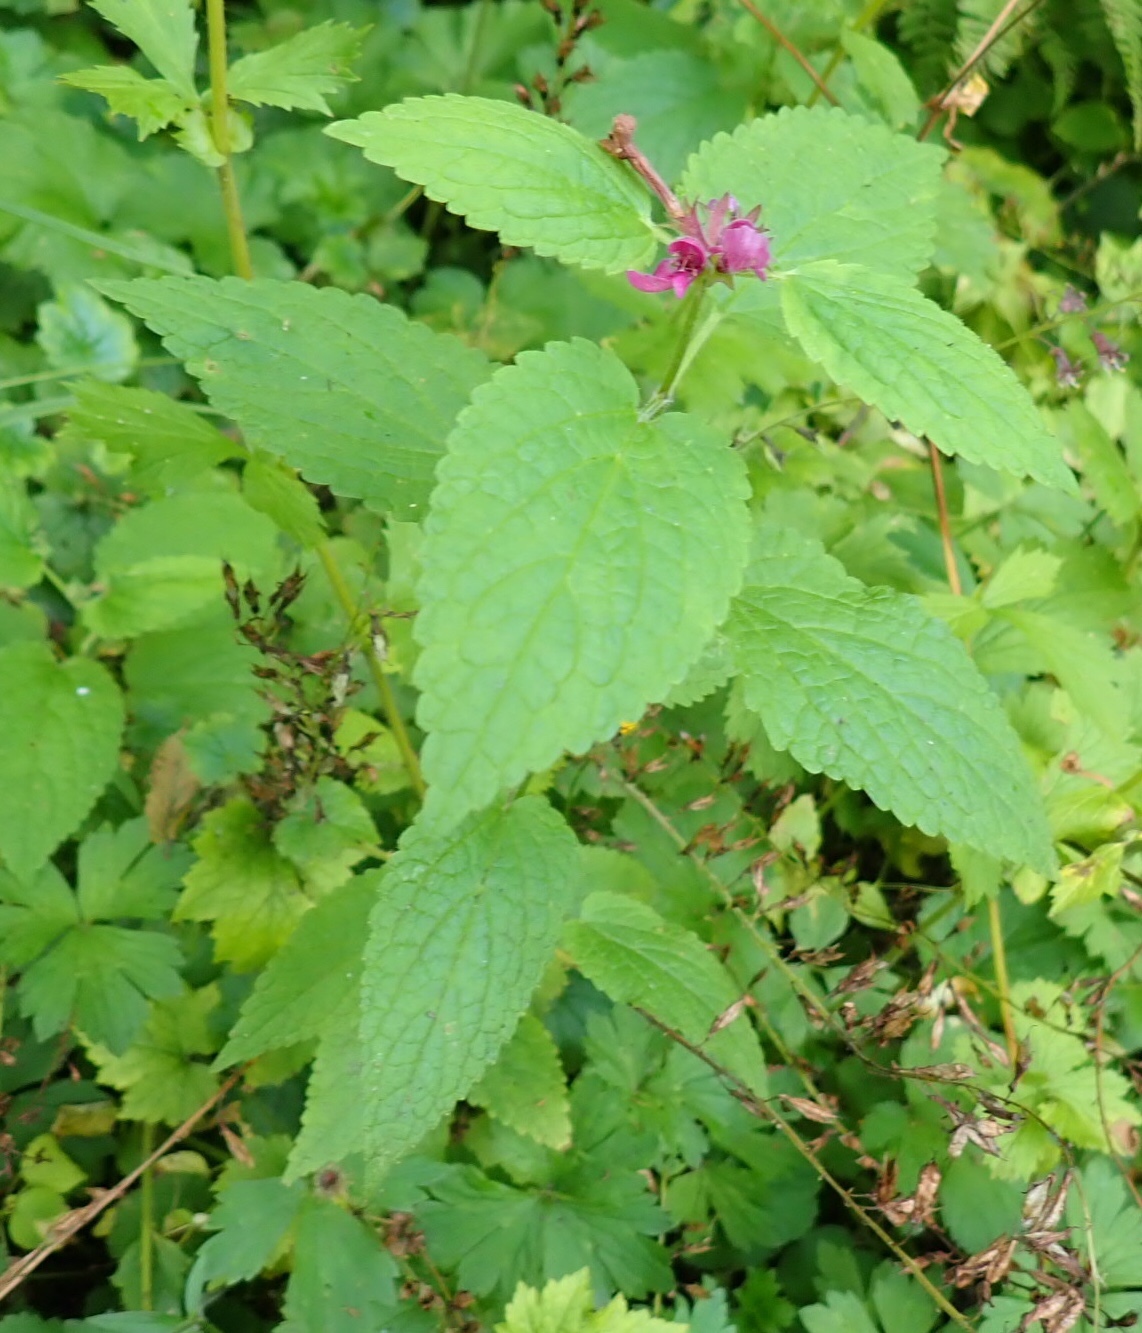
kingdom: Plantae
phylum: Tracheophyta
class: Magnoliopsida
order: Lamiales
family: Lamiaceae
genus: Stachys
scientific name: Stachys chamissonis
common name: Coastal hedge-nettle
